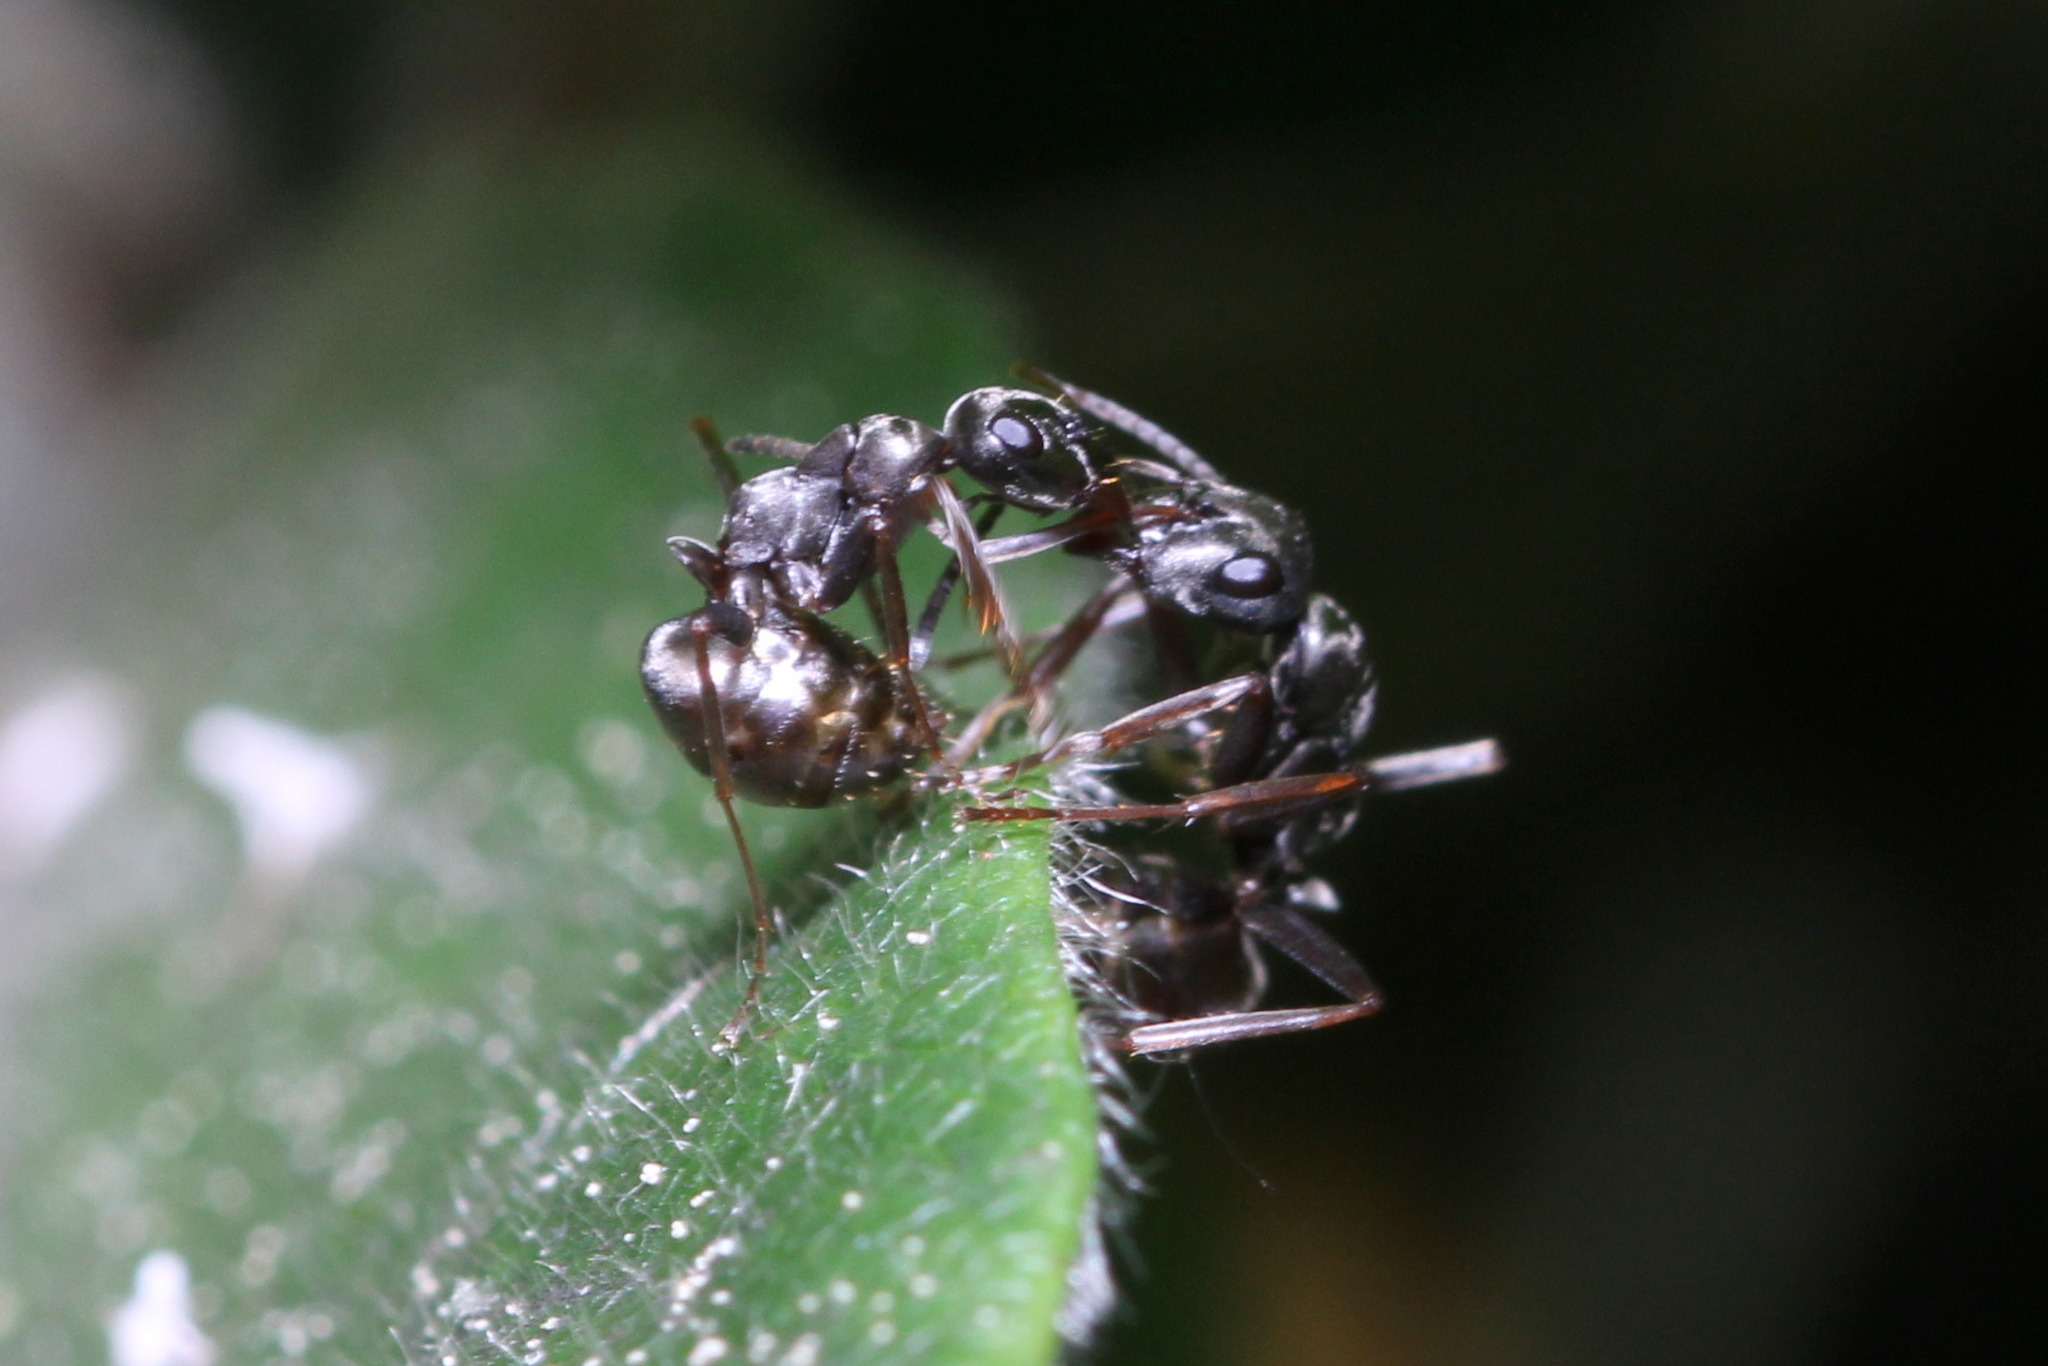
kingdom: Animalia
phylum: Arthropoda
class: Insecta
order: Hymenoptera
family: Formicidae
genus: Formica
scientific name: Formica fusca
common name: Silky ant
